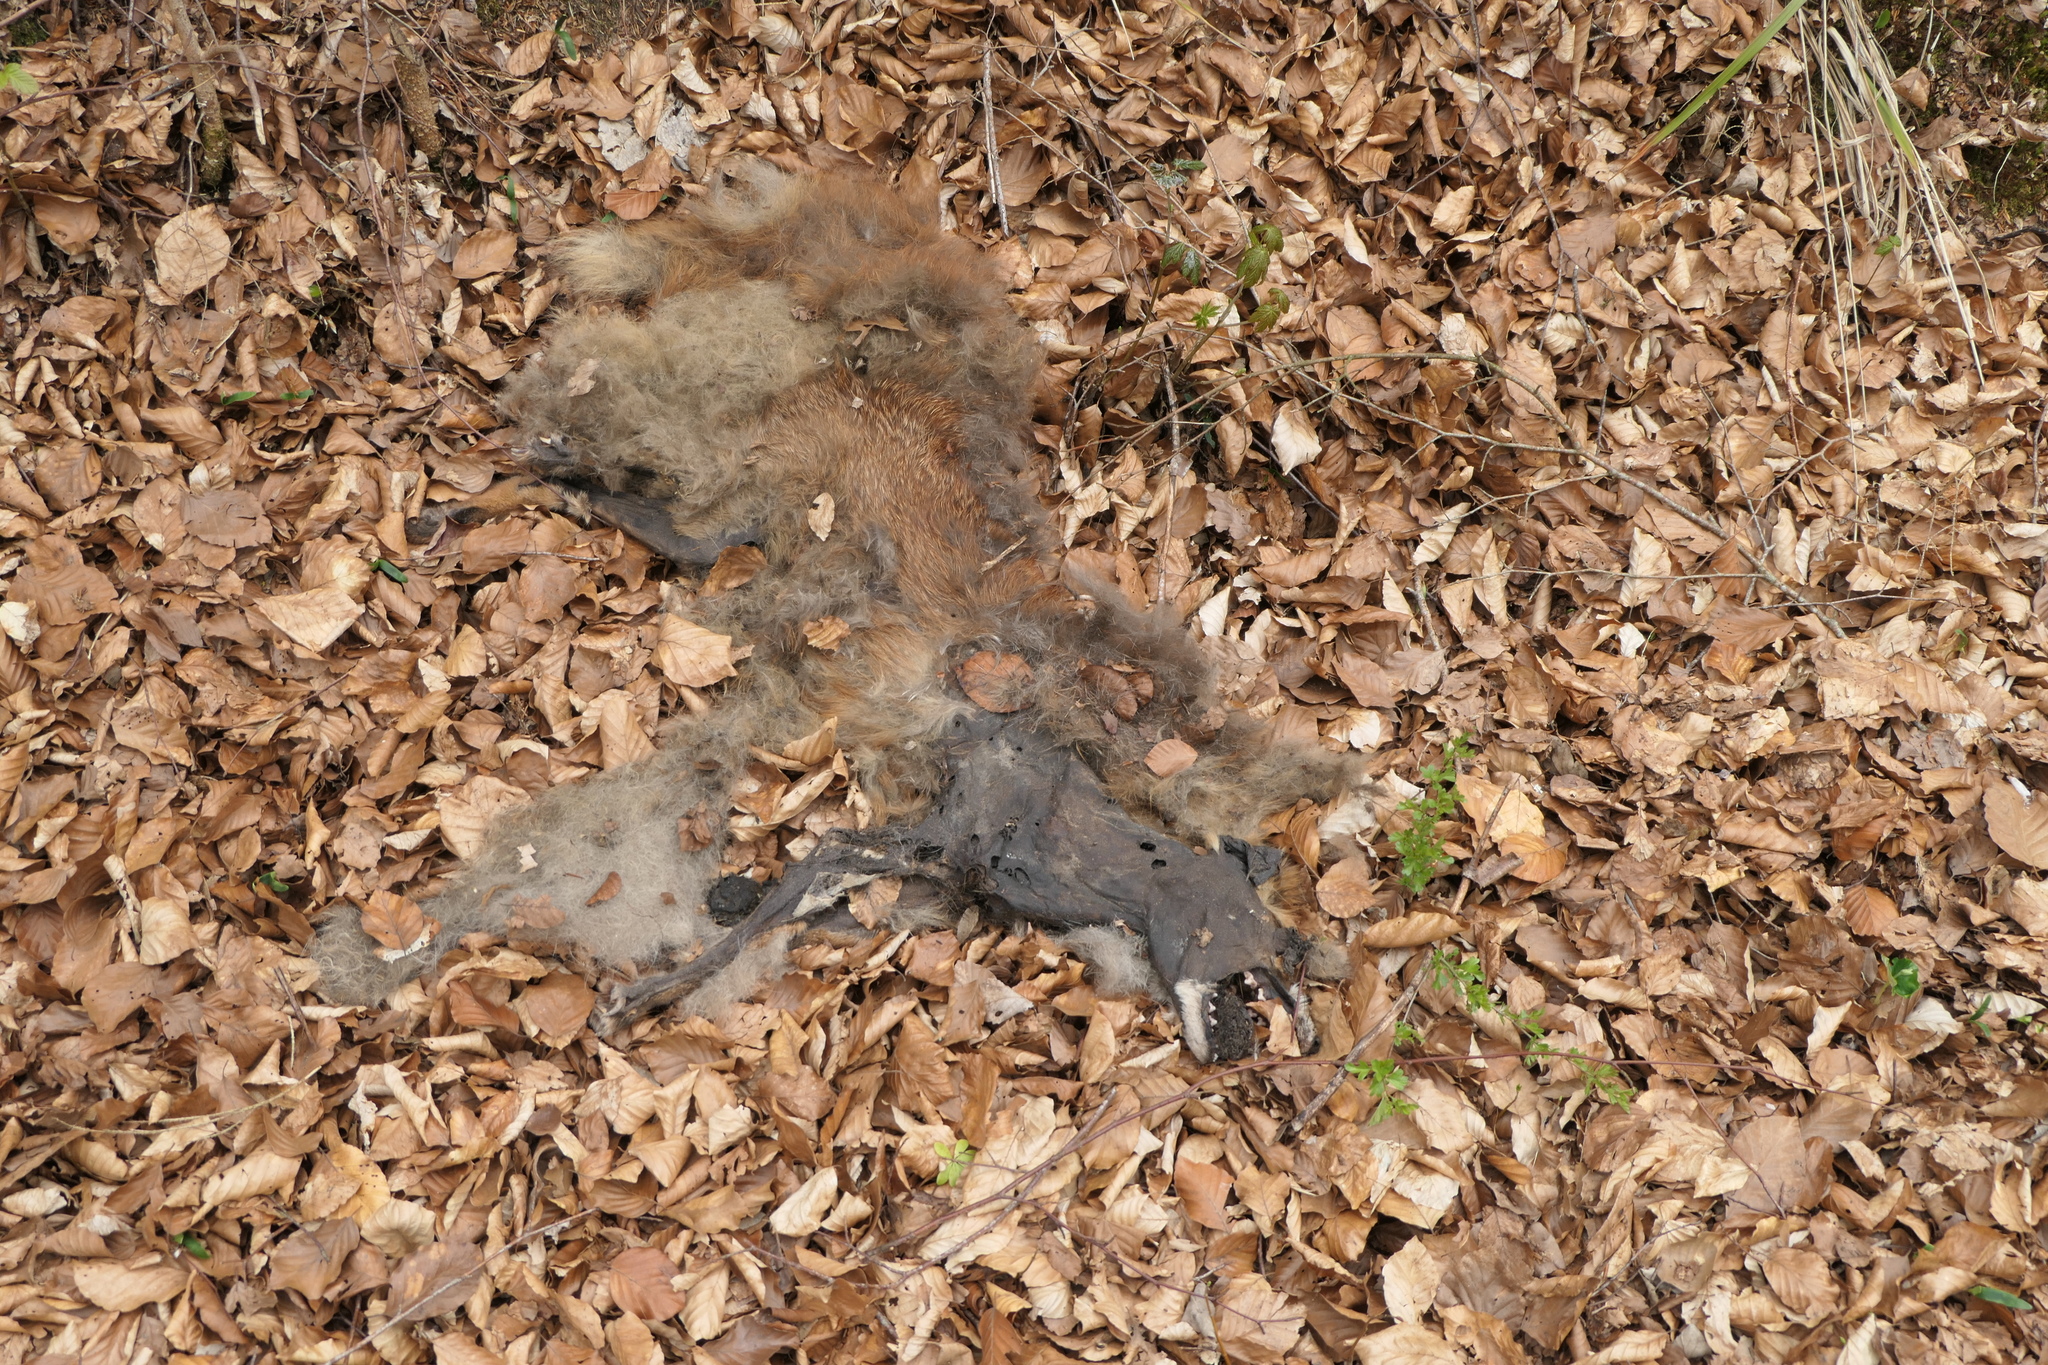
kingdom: Animalia
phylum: Chordata
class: Mammalia
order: Carnivora
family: Canidae
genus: Vulpes
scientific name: Vulpes vulpes
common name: Red fox
